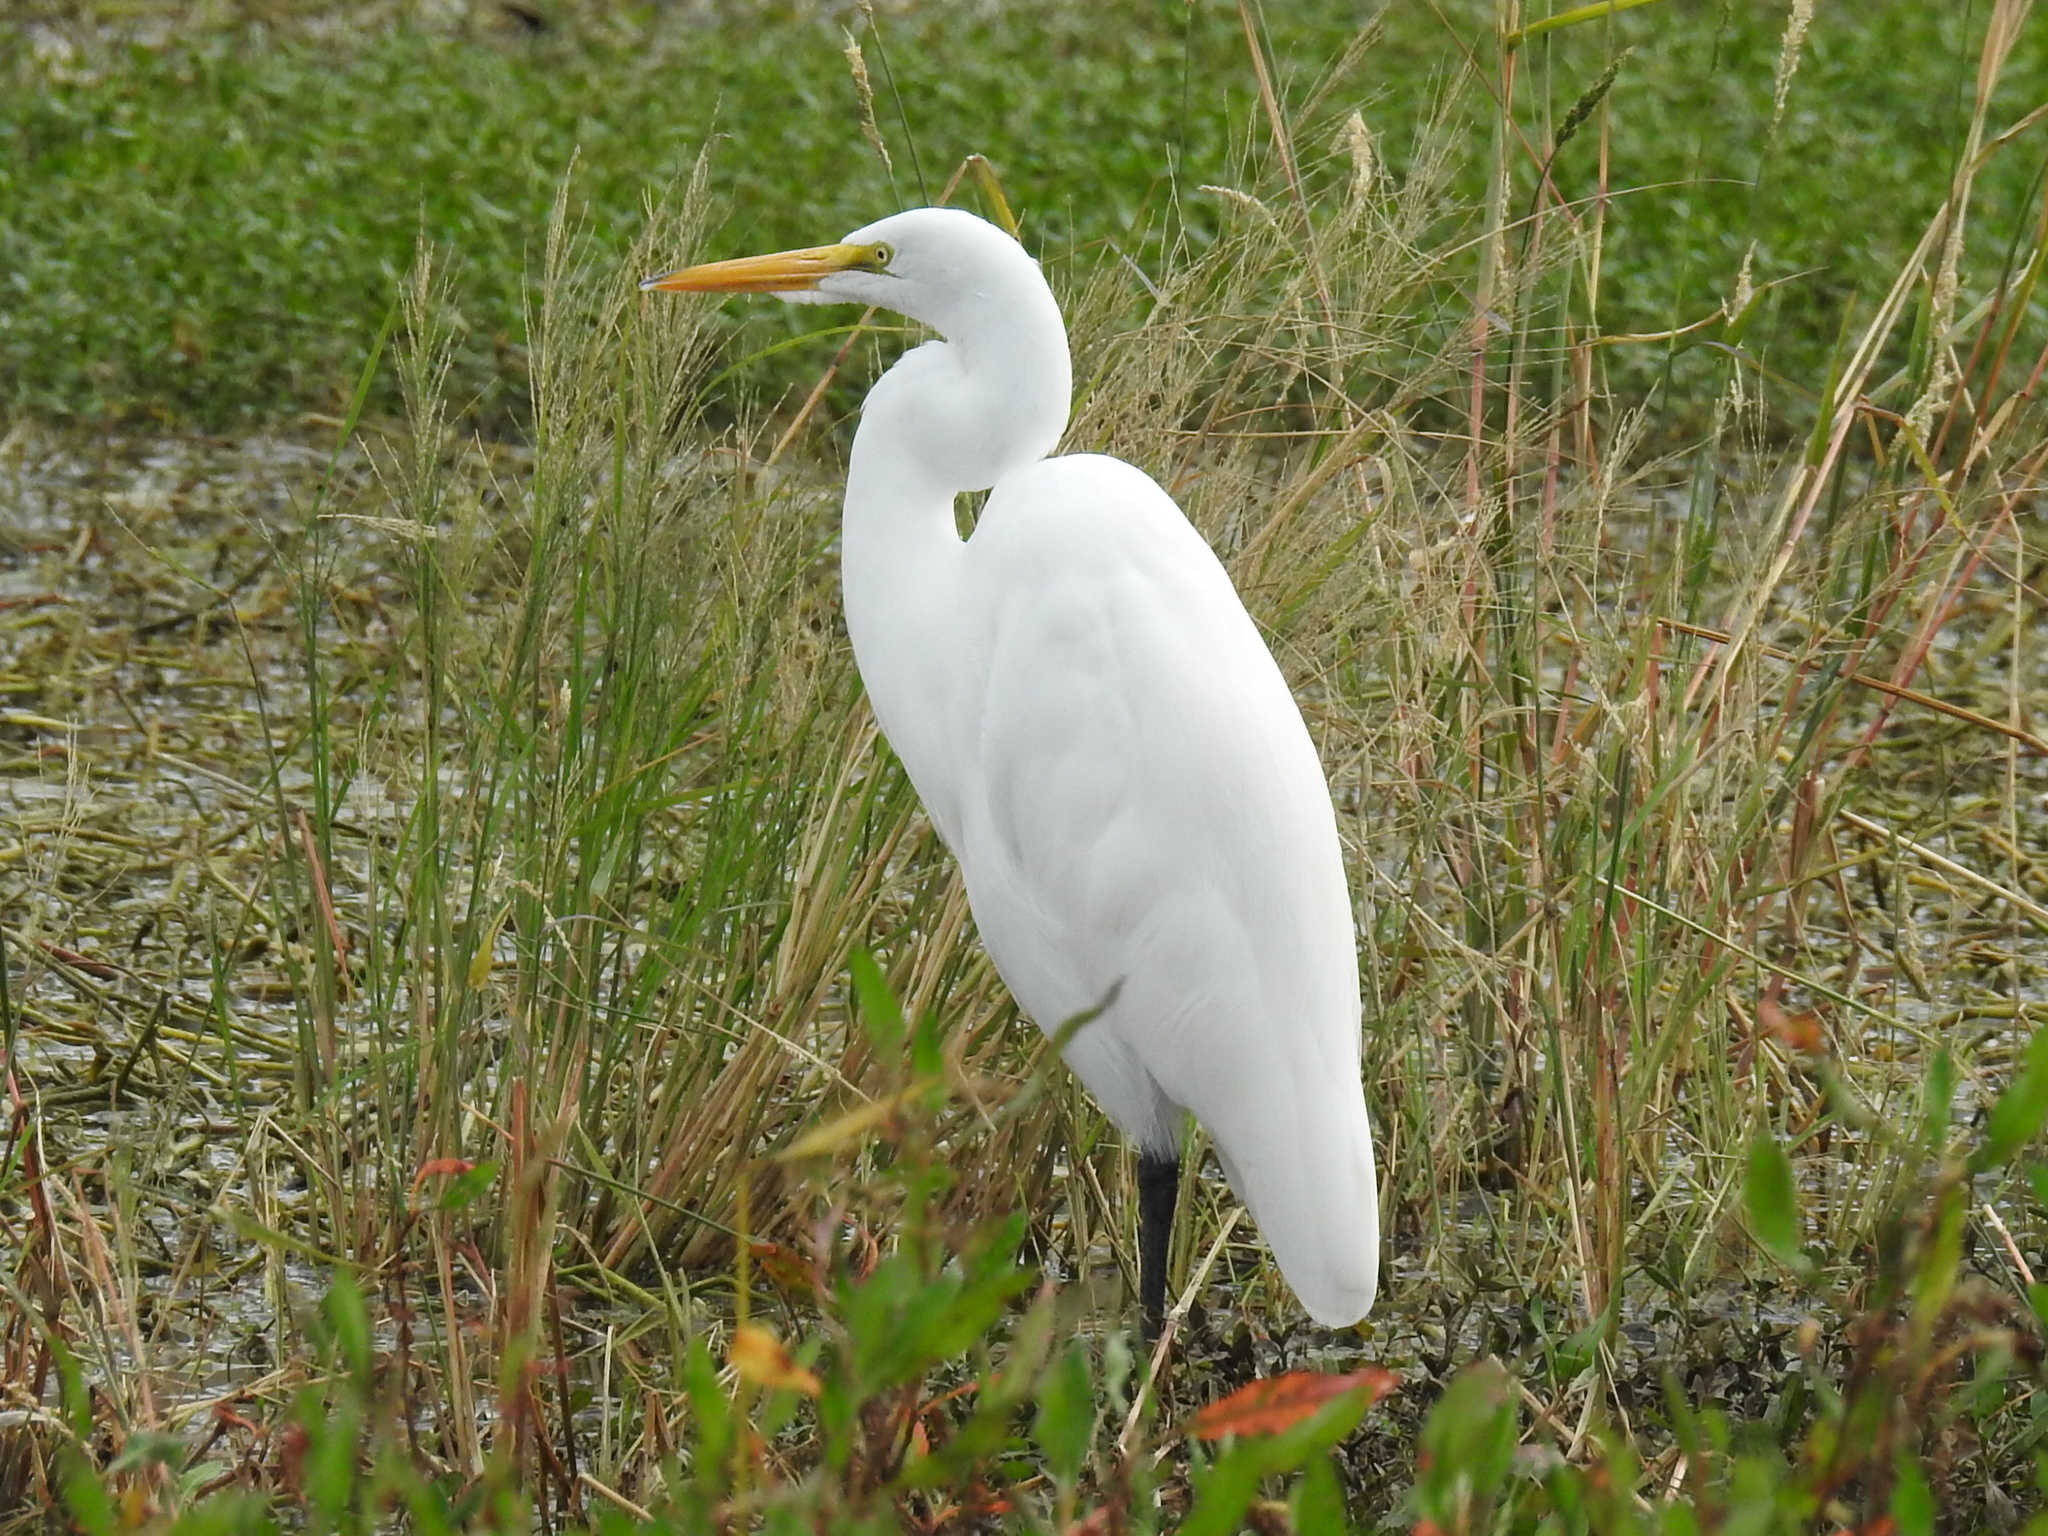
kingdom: Animalia
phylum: Chordata
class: Aves
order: Pelecaniformes
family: Ardeidae
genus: Ardea
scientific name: Ardea alba
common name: Great egret
